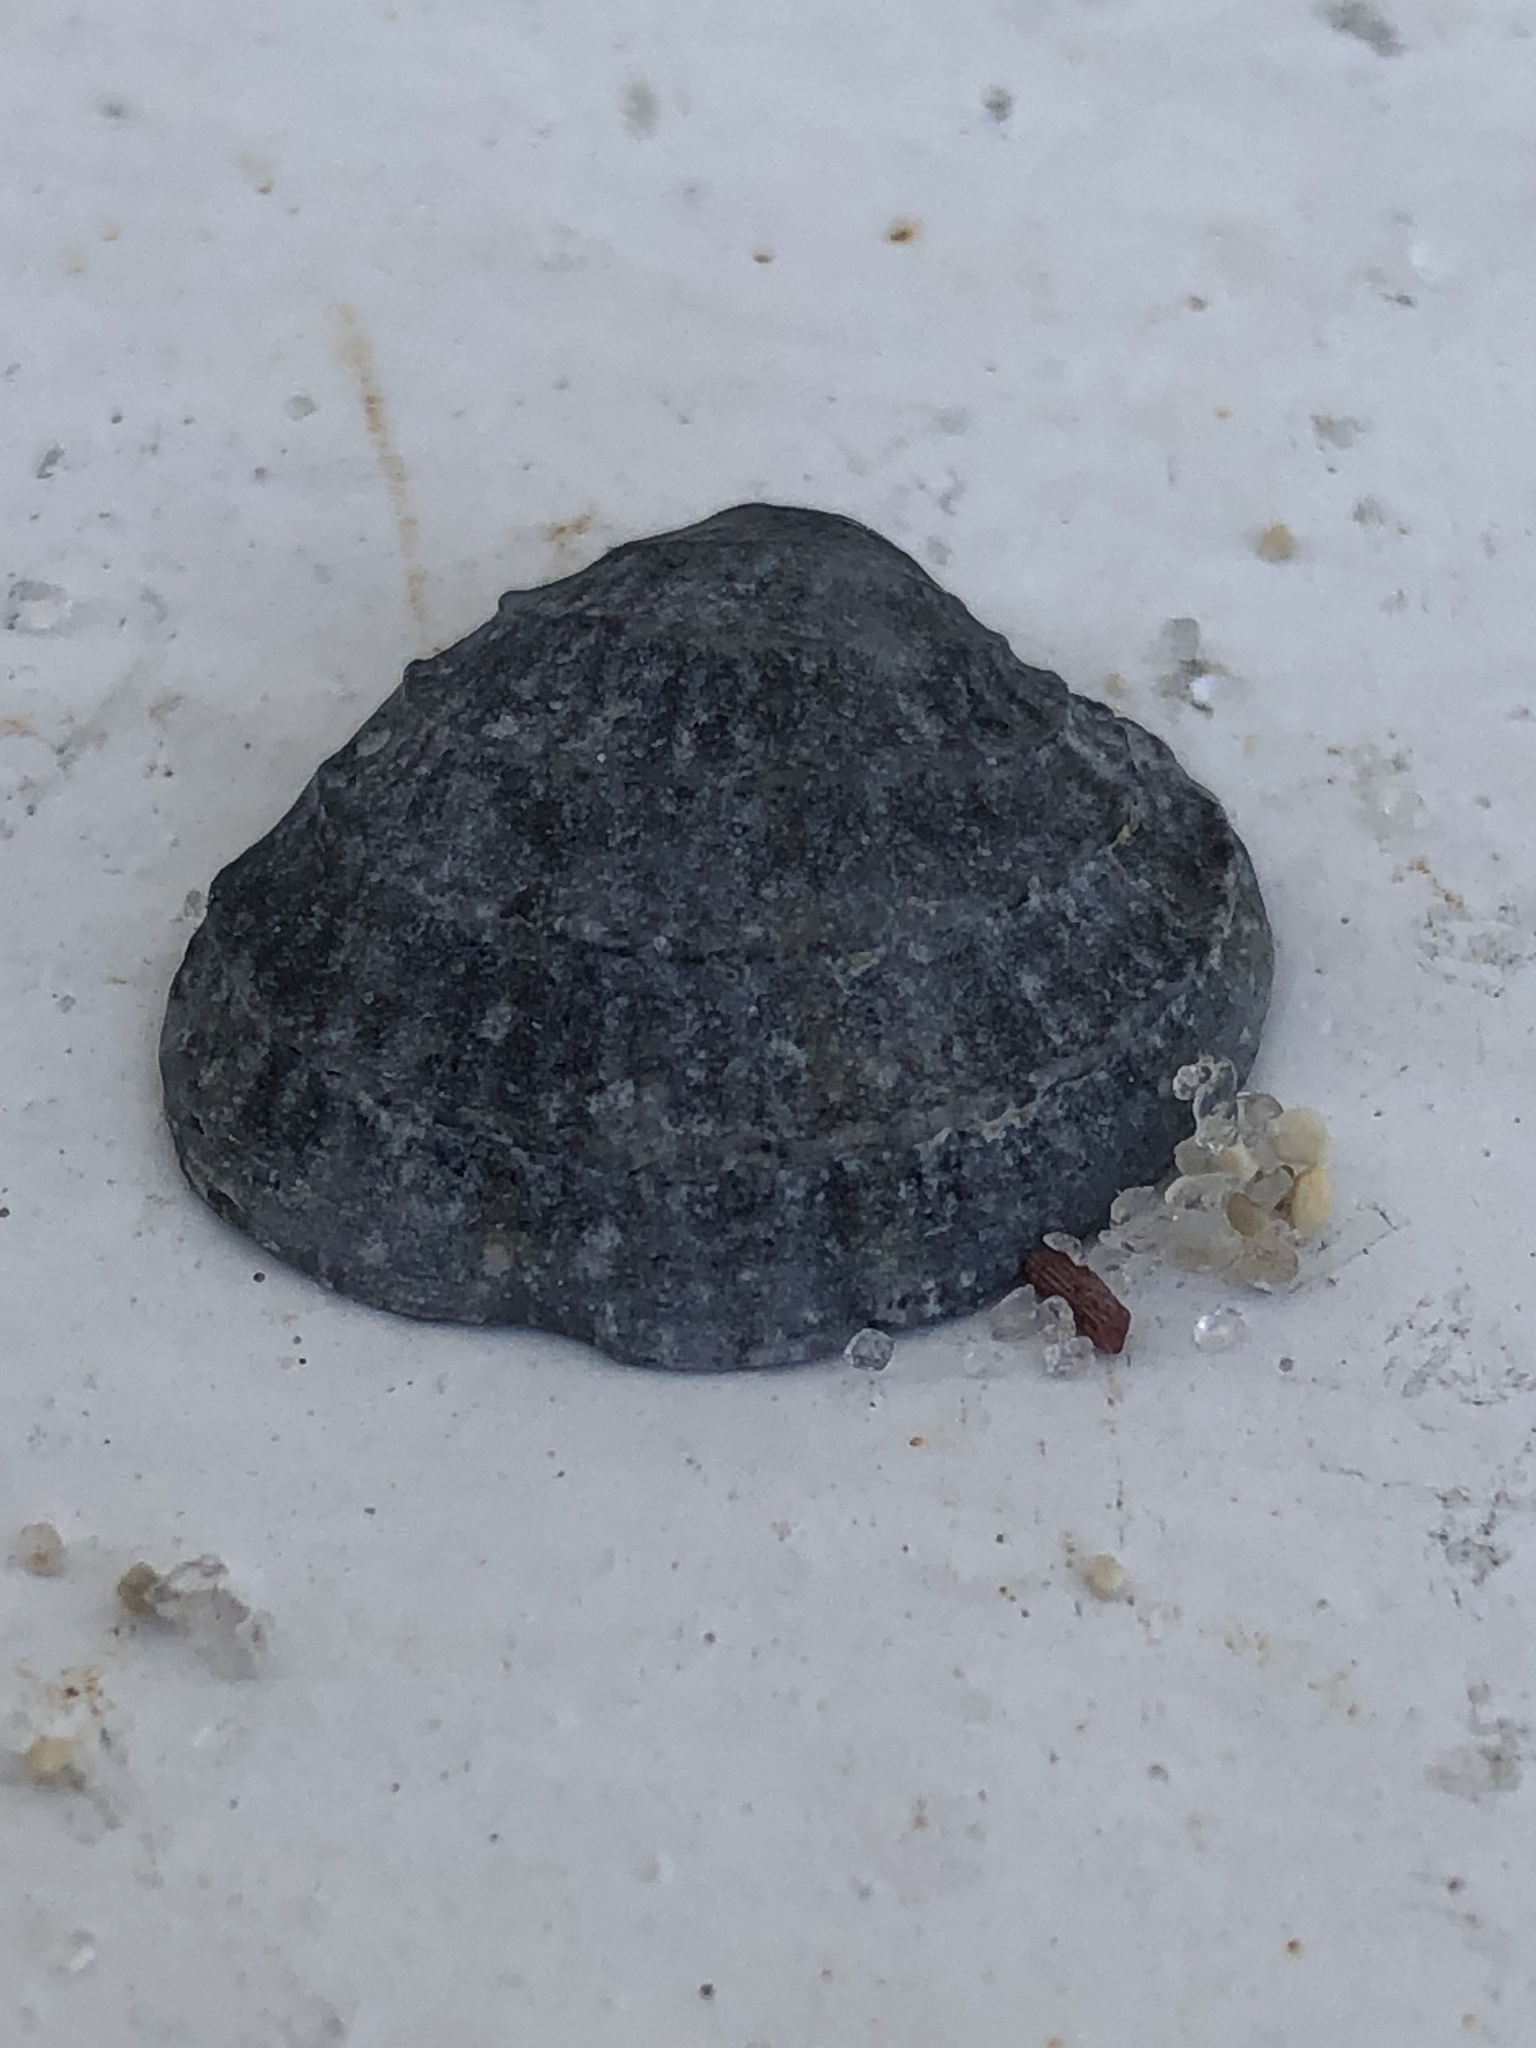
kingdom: Animalia
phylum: Mollusca
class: Bivalvia
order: Venerida
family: Veneridae
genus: Chione
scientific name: Chione elevata
